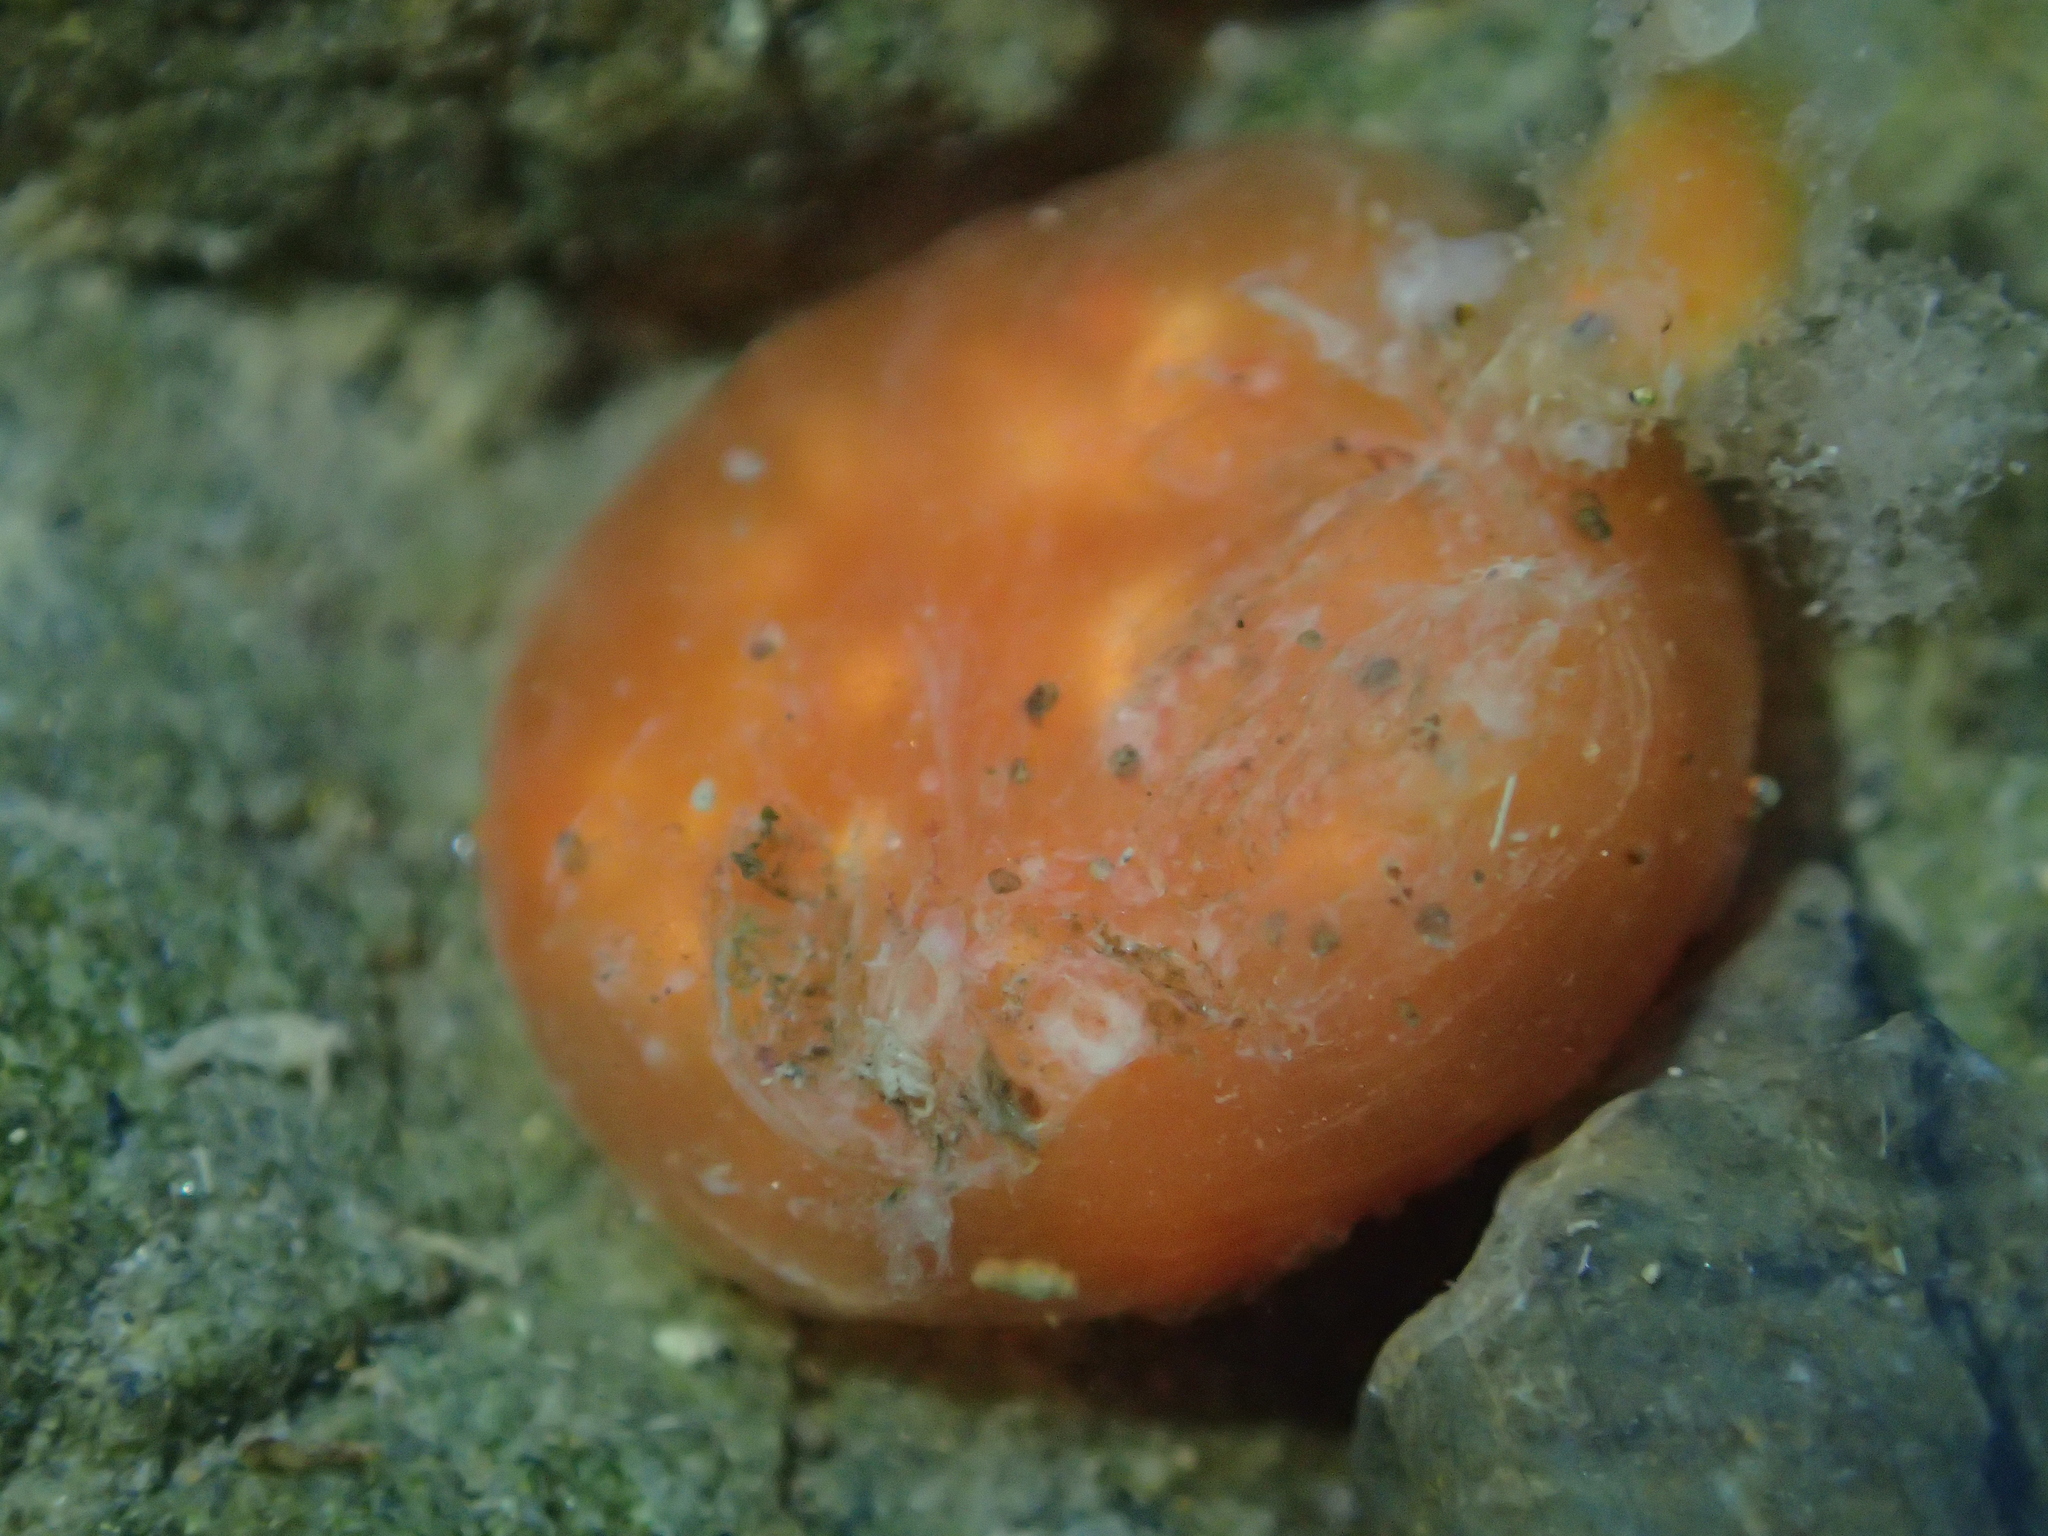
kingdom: Animalia
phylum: Chordata
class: Ascidiacea
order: Aplousobranchia
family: Polyclinidae
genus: Aplidium
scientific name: Aplidium benhami
